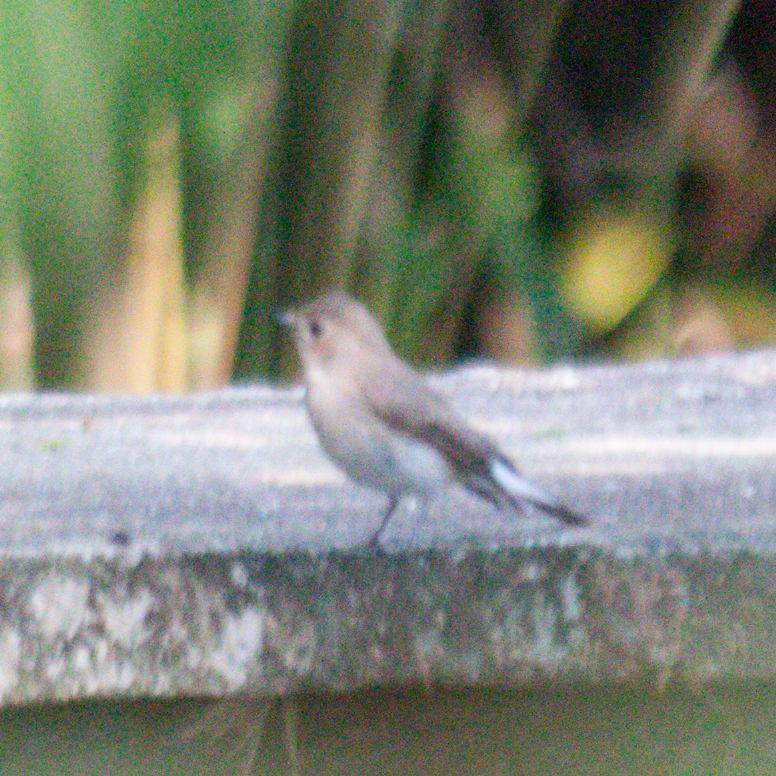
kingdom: Animalia
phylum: Chordata
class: Aves
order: Passeriformes
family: Muscicapidae
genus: Ficedula
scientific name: Ficedula albicilla
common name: Taiga flycatcher
